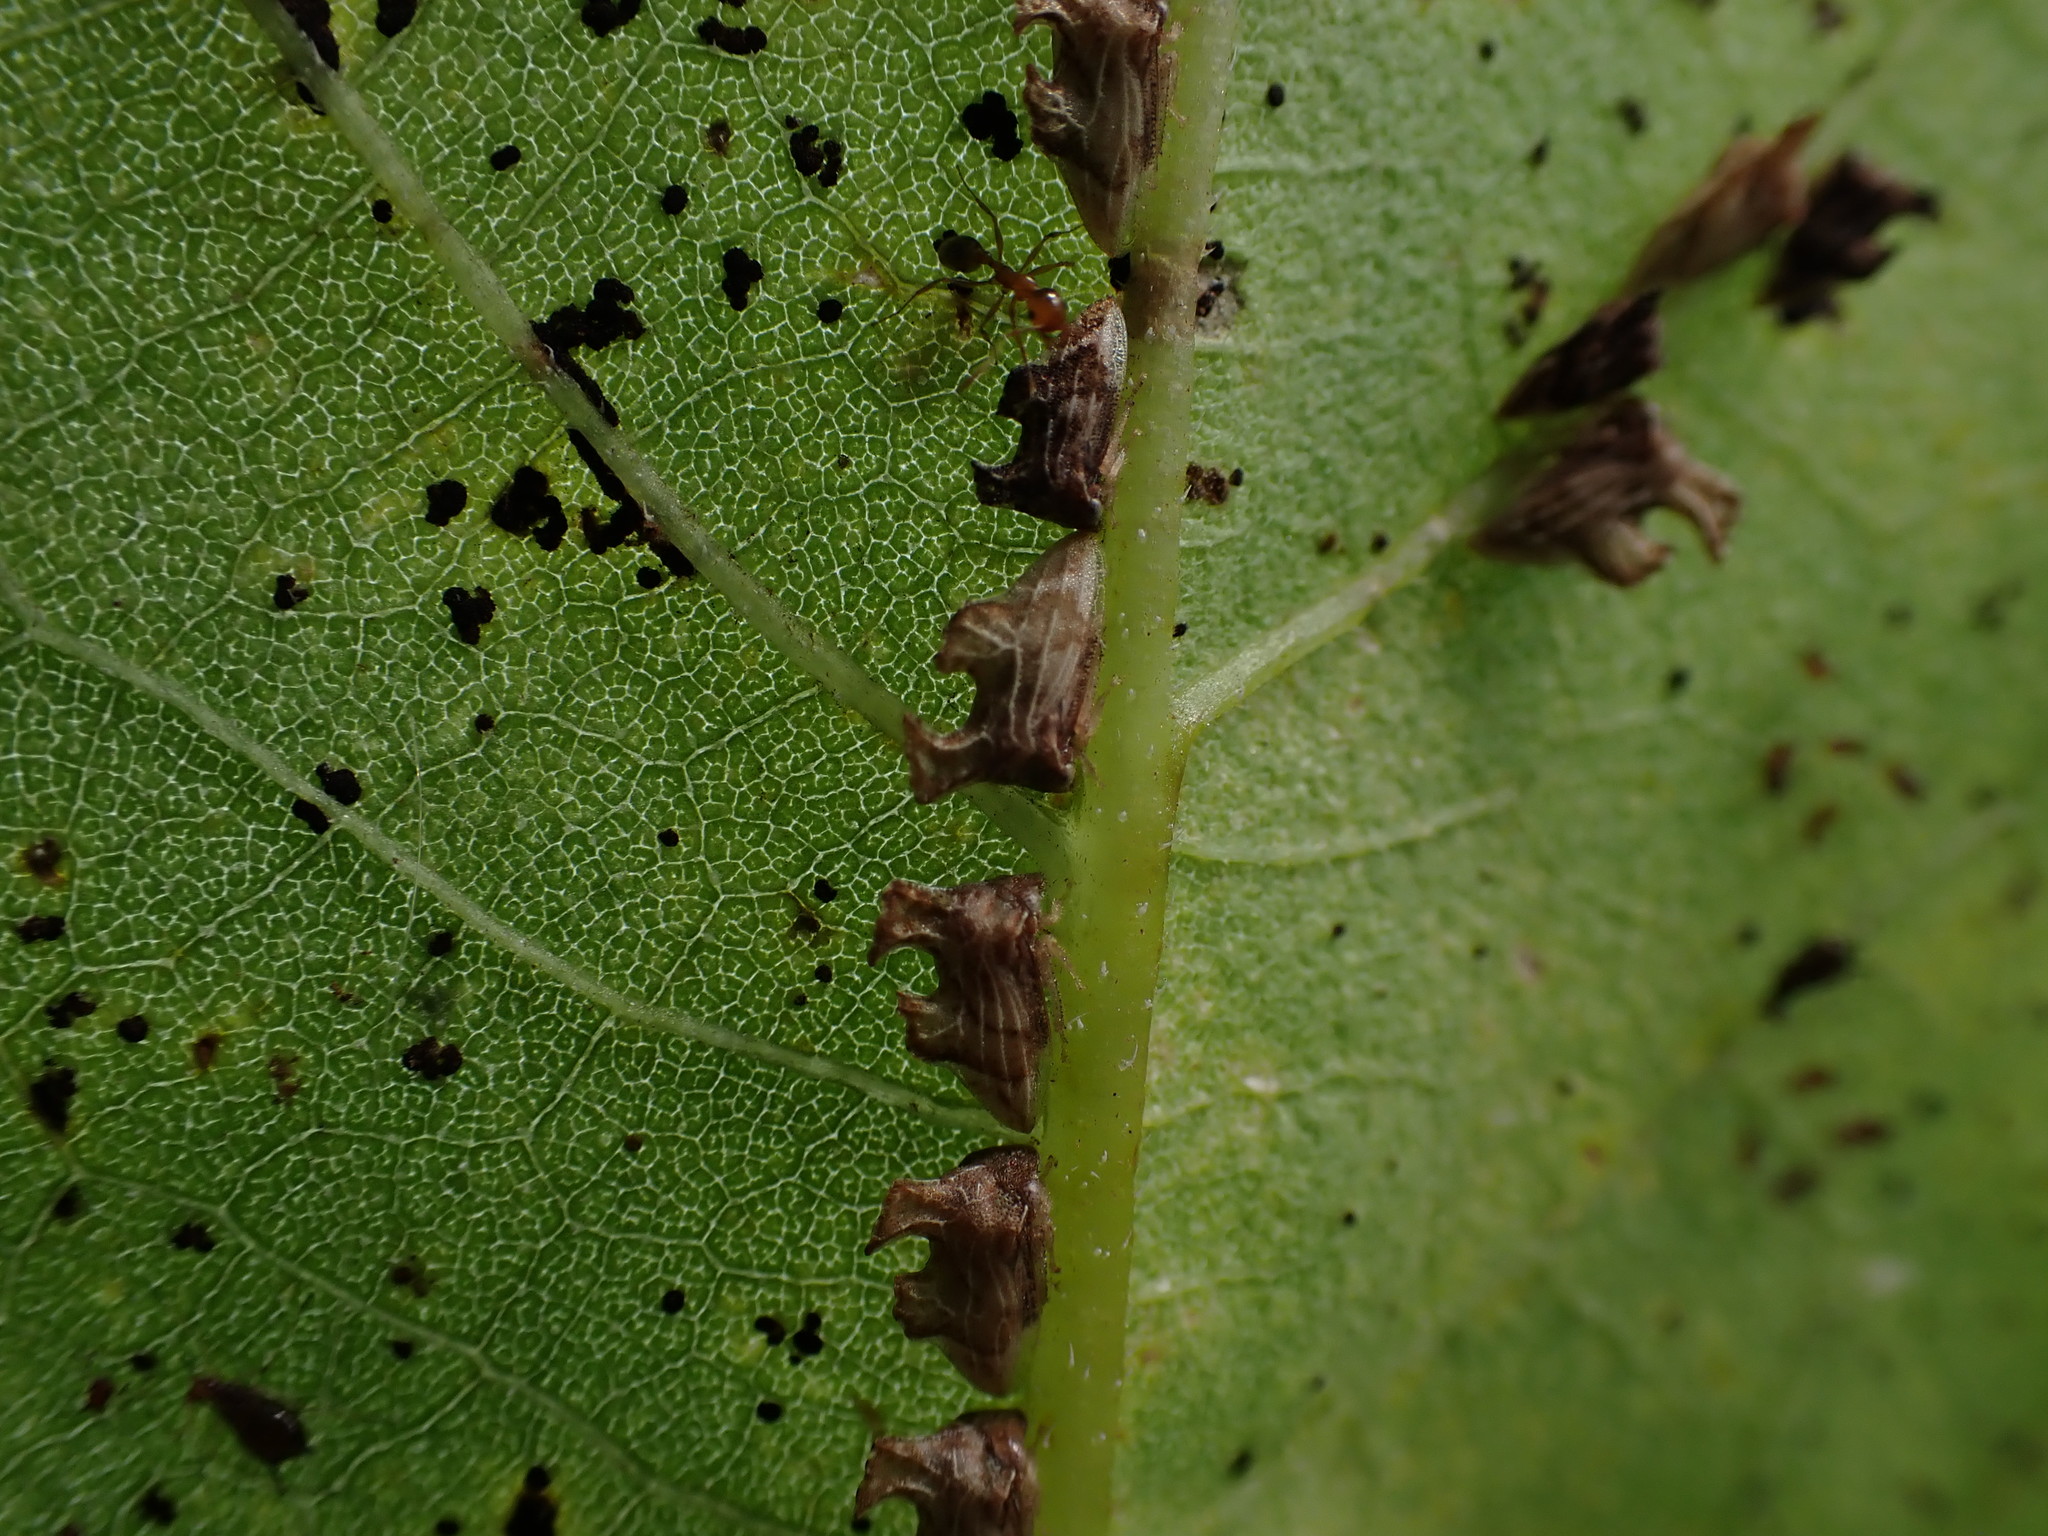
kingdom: Animalia
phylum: Arthropoda
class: Insecta
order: Hemiptera
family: Membracidae
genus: Entylia
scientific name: Entylia carinata
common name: Keeled treehopper
